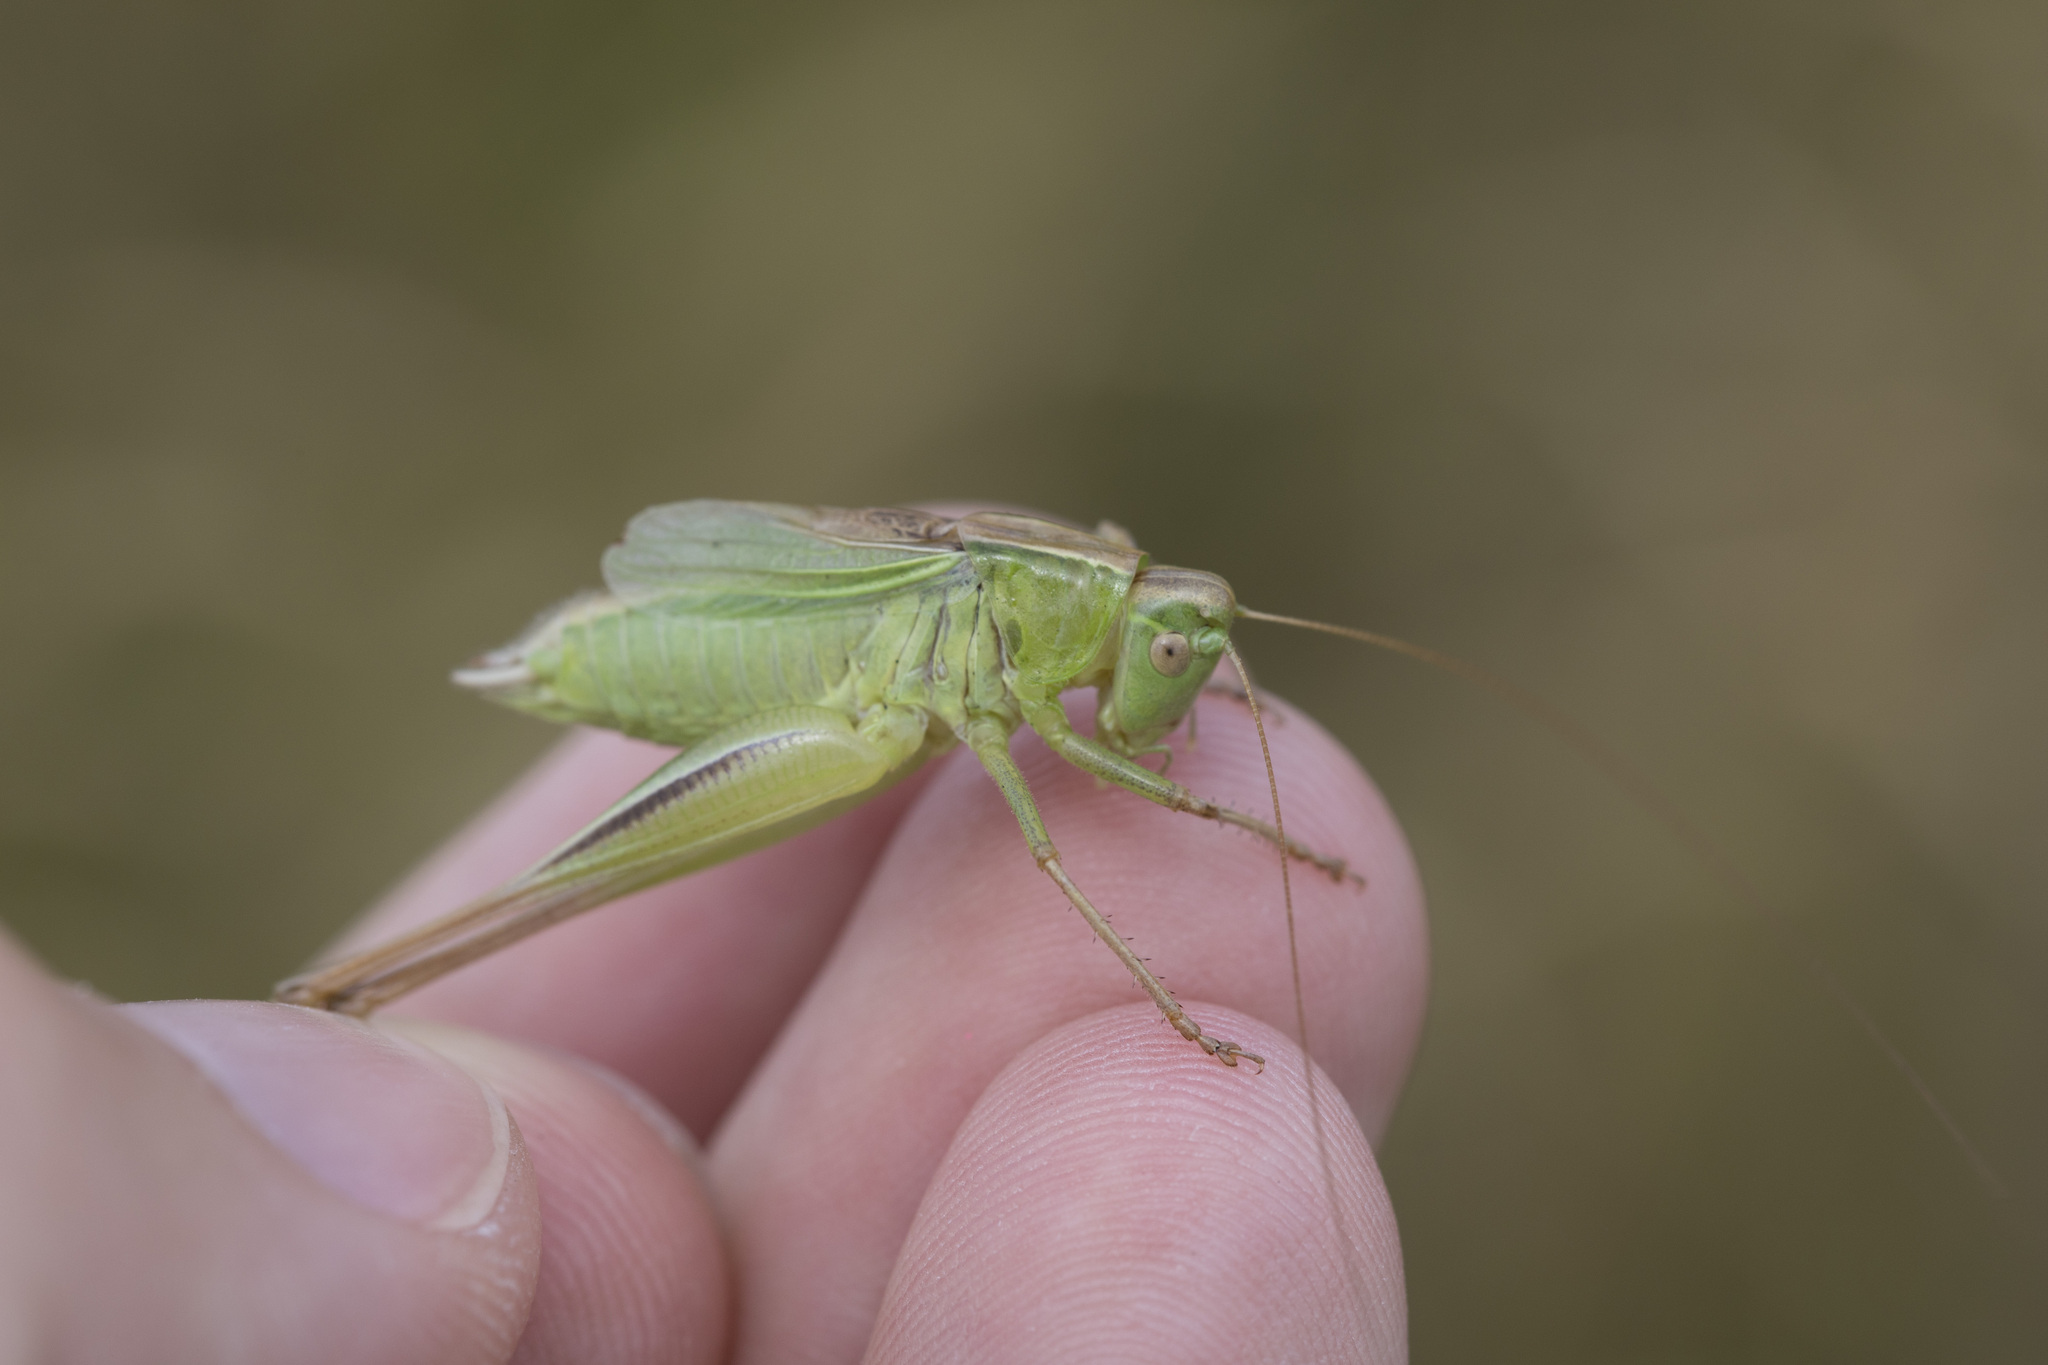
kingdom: Animalia
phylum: Arthropoda
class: Insecta
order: Orthoptera
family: Tettigoniidae
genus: Bicolorana
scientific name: Bicolorana bicolor
